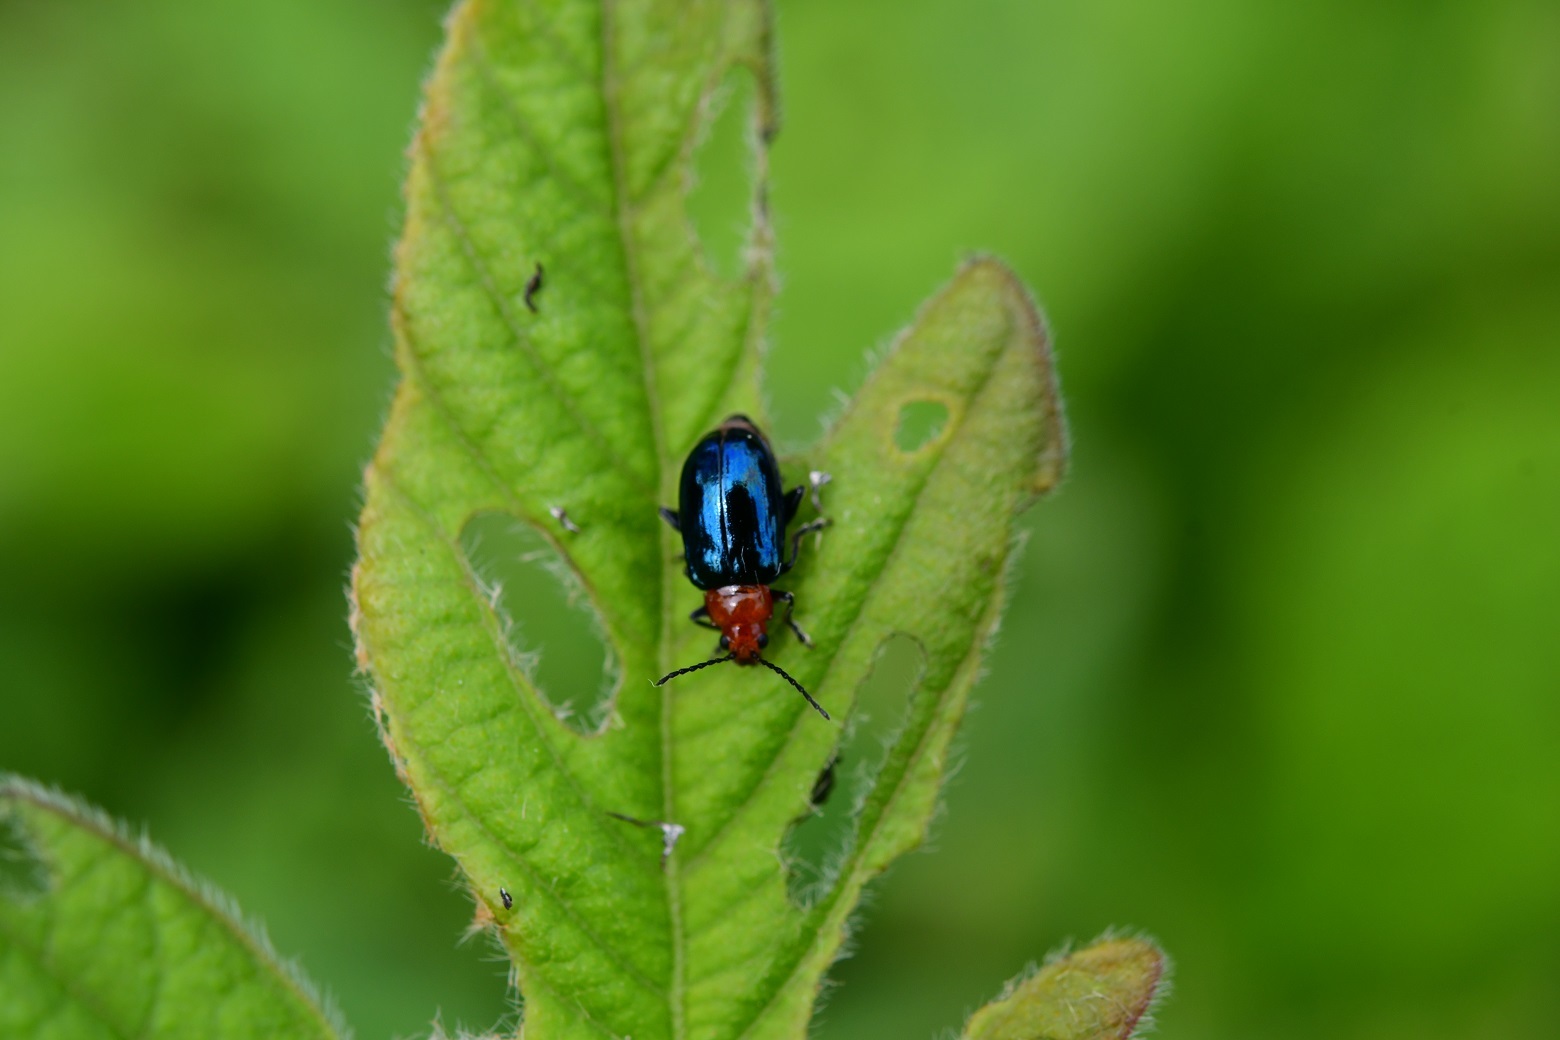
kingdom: Animalia
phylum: Arthropoda
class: Insecta
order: Coleoptera
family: Chrysomelidae
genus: Diphaulaca
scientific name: Diphaulaca wagneri
